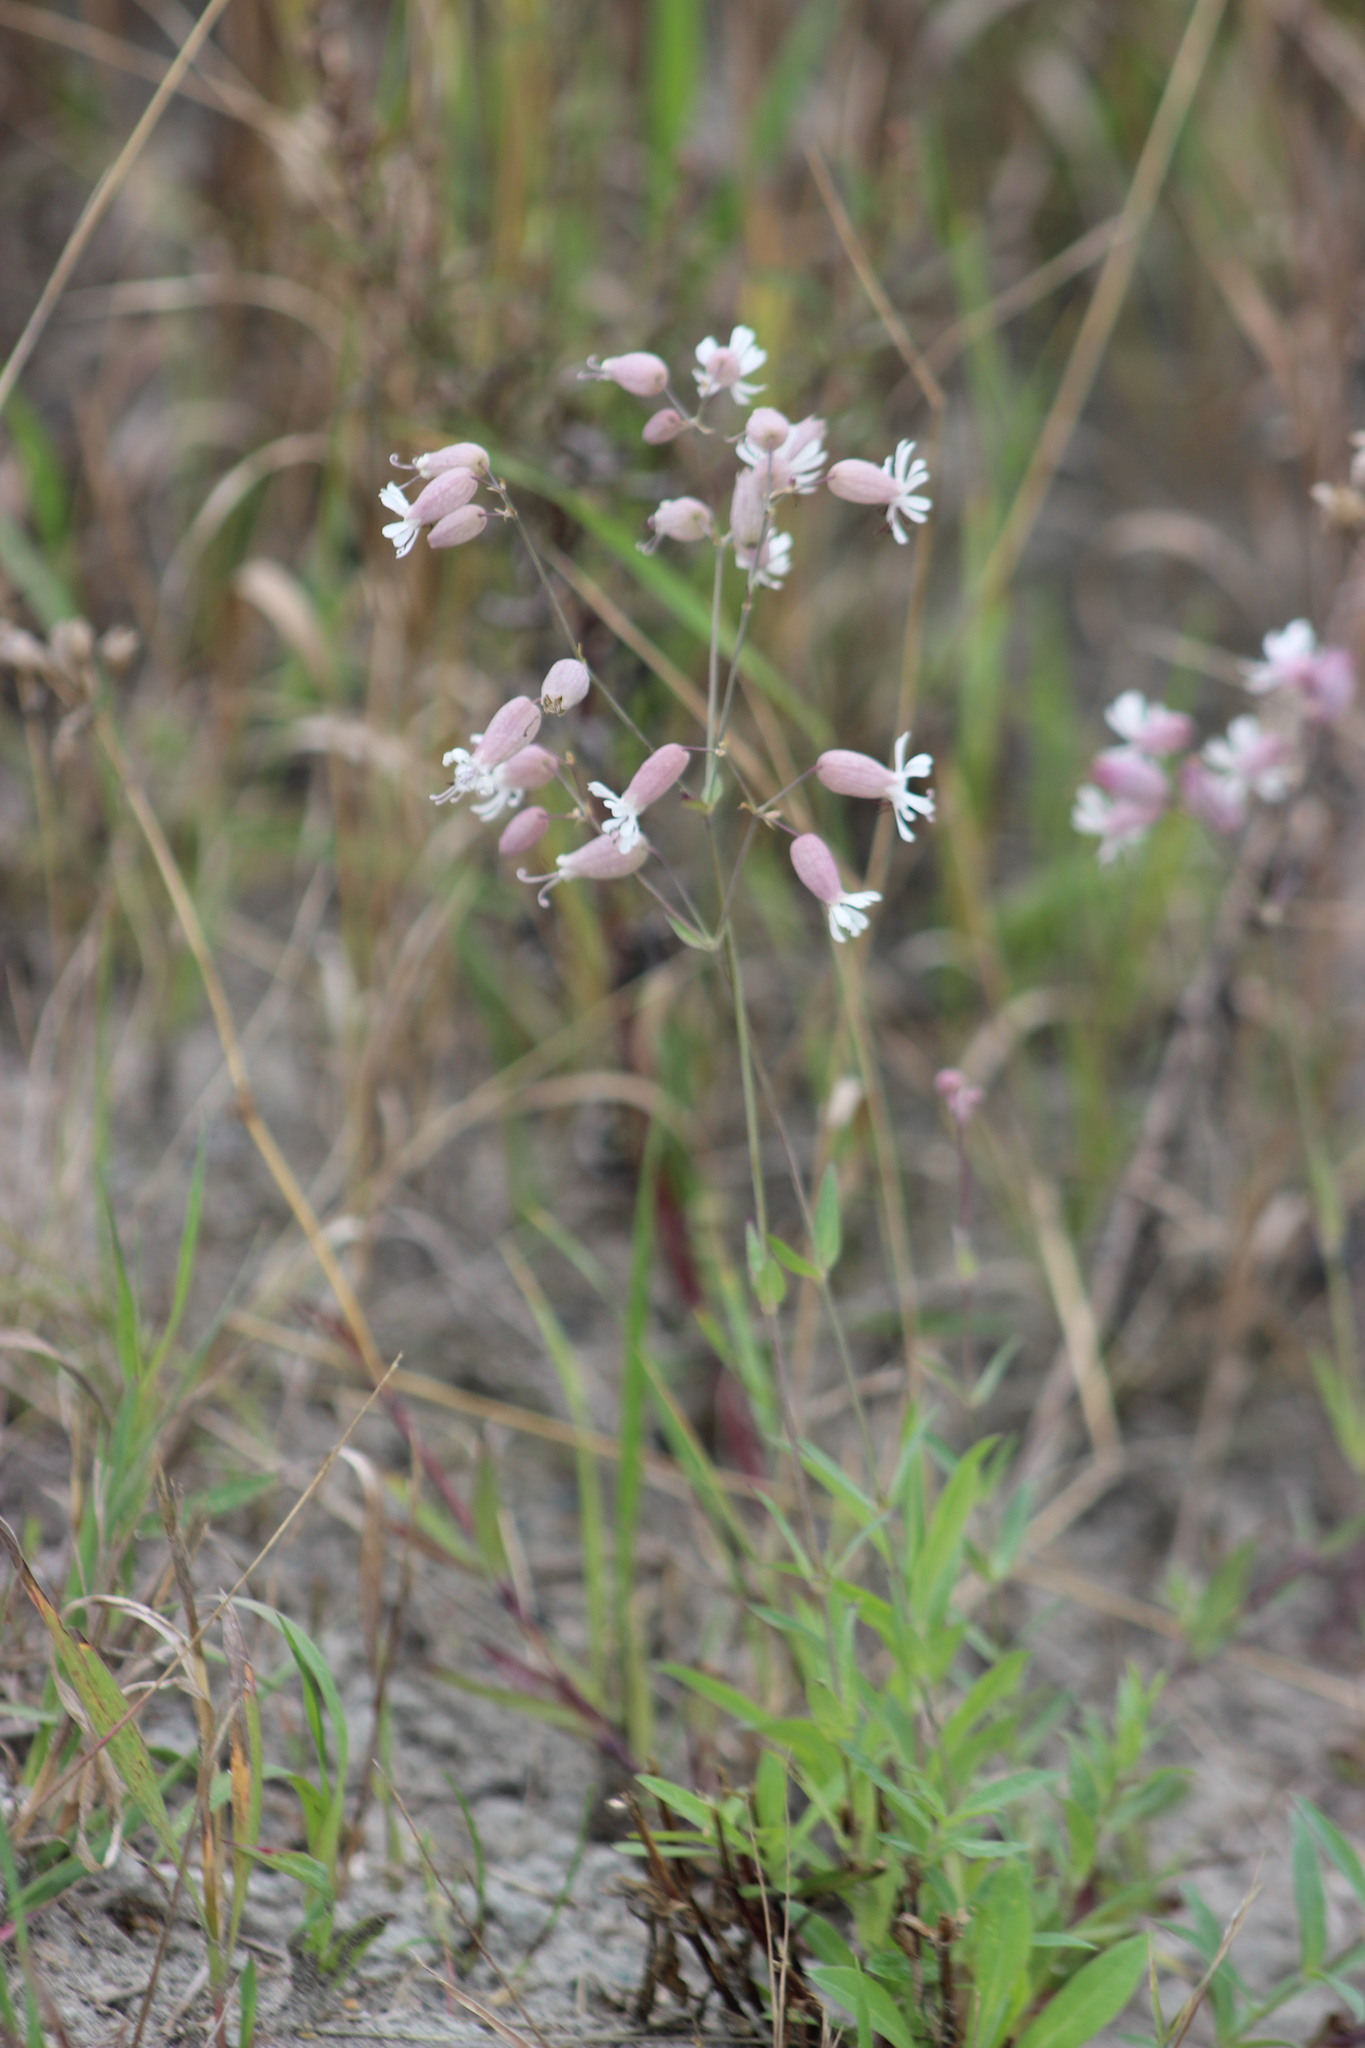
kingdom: Plantae
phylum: Tracheophyta
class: Magnoliopsida
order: Caryophyllales
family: Caryophyllaceae
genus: Silene
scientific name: Silene vulgaris
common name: Bladder campion
